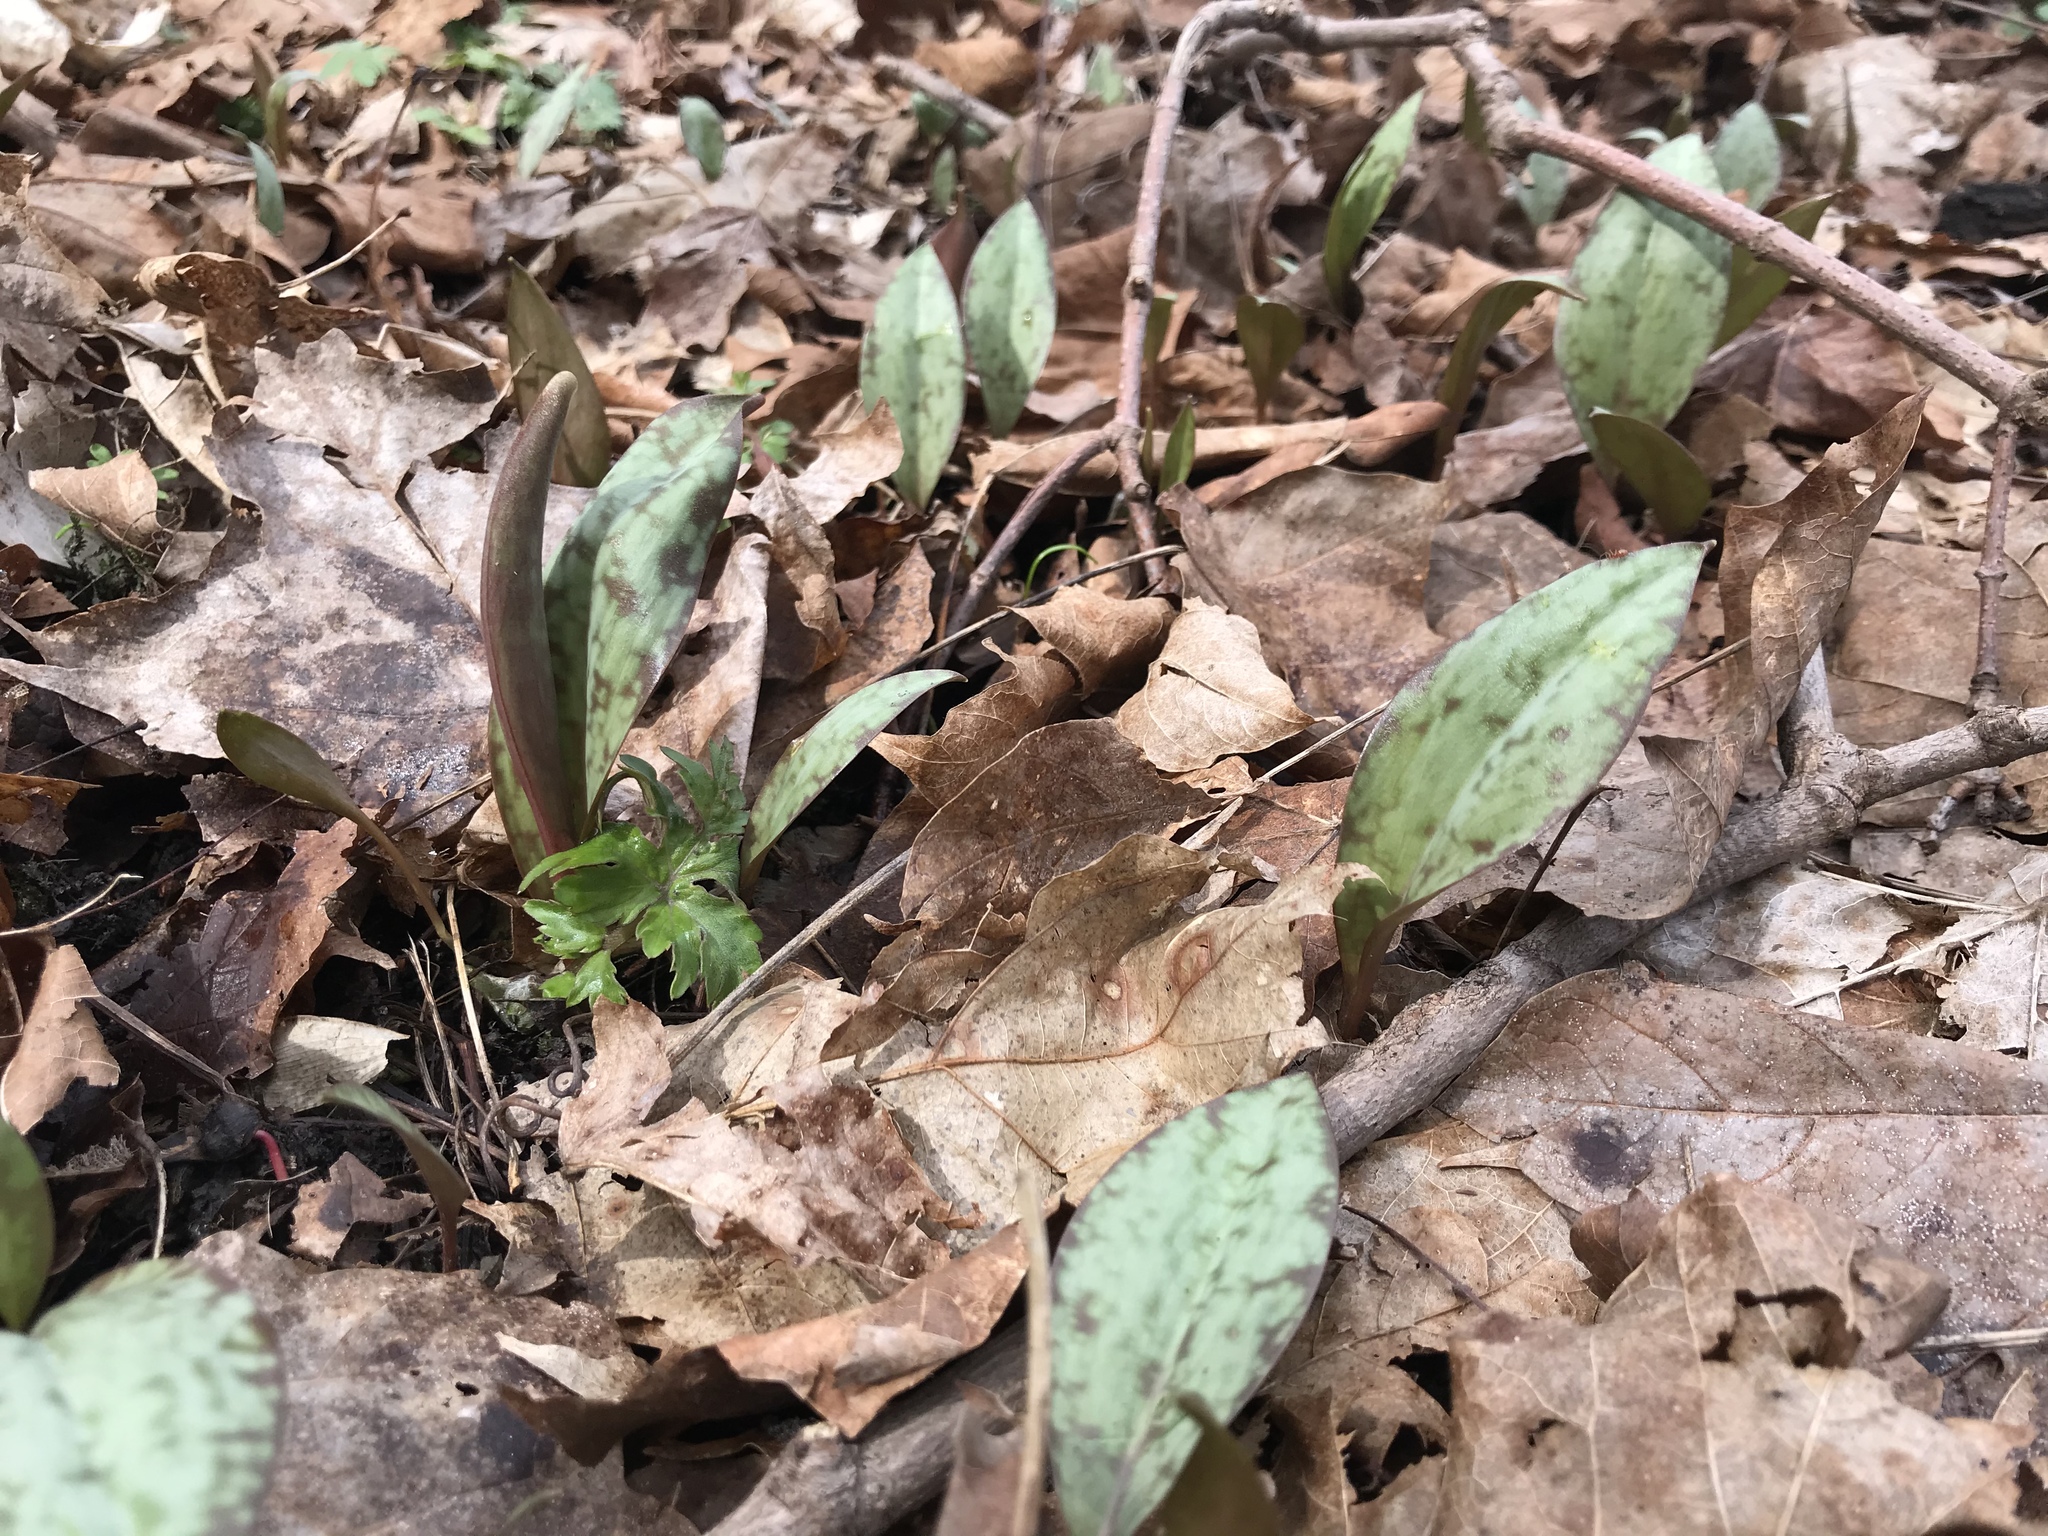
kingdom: Plantae
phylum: Tracheophyta
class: Liliopsida
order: Liliales
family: Liliaceae
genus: Erythronium
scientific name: Erythronium americanum
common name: Yellow adder's-tongue
